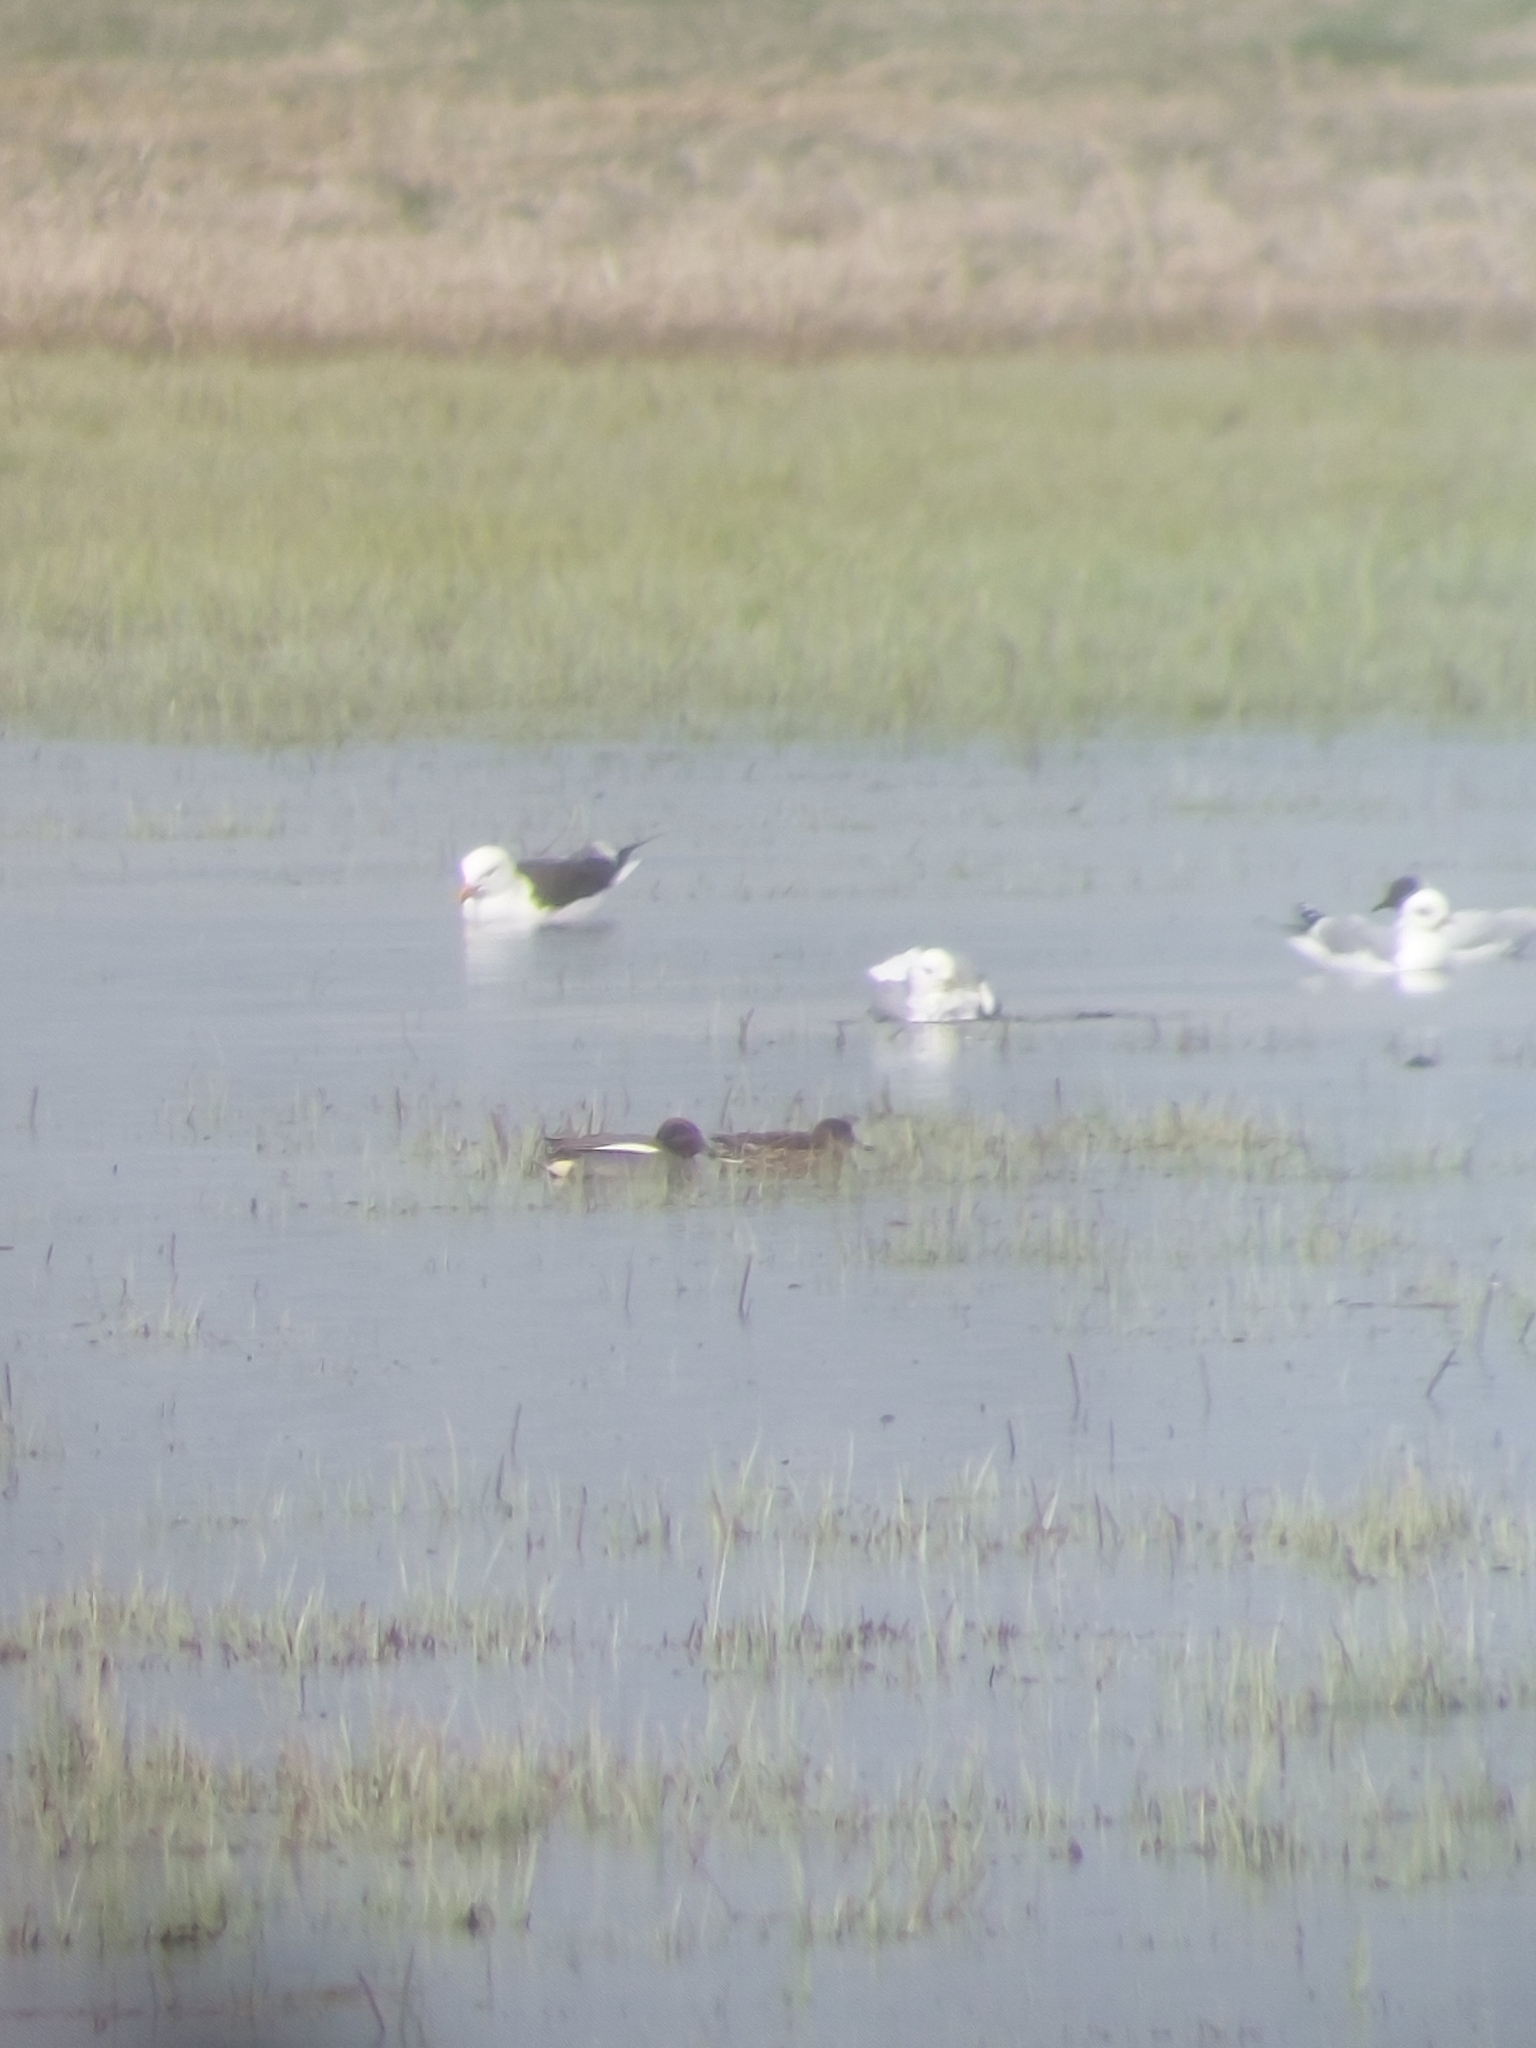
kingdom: Animalia
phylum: Chordata
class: Aves
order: Anseriformes
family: Anatidae
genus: Anas
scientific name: Anas crecca
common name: Eurasian teal
